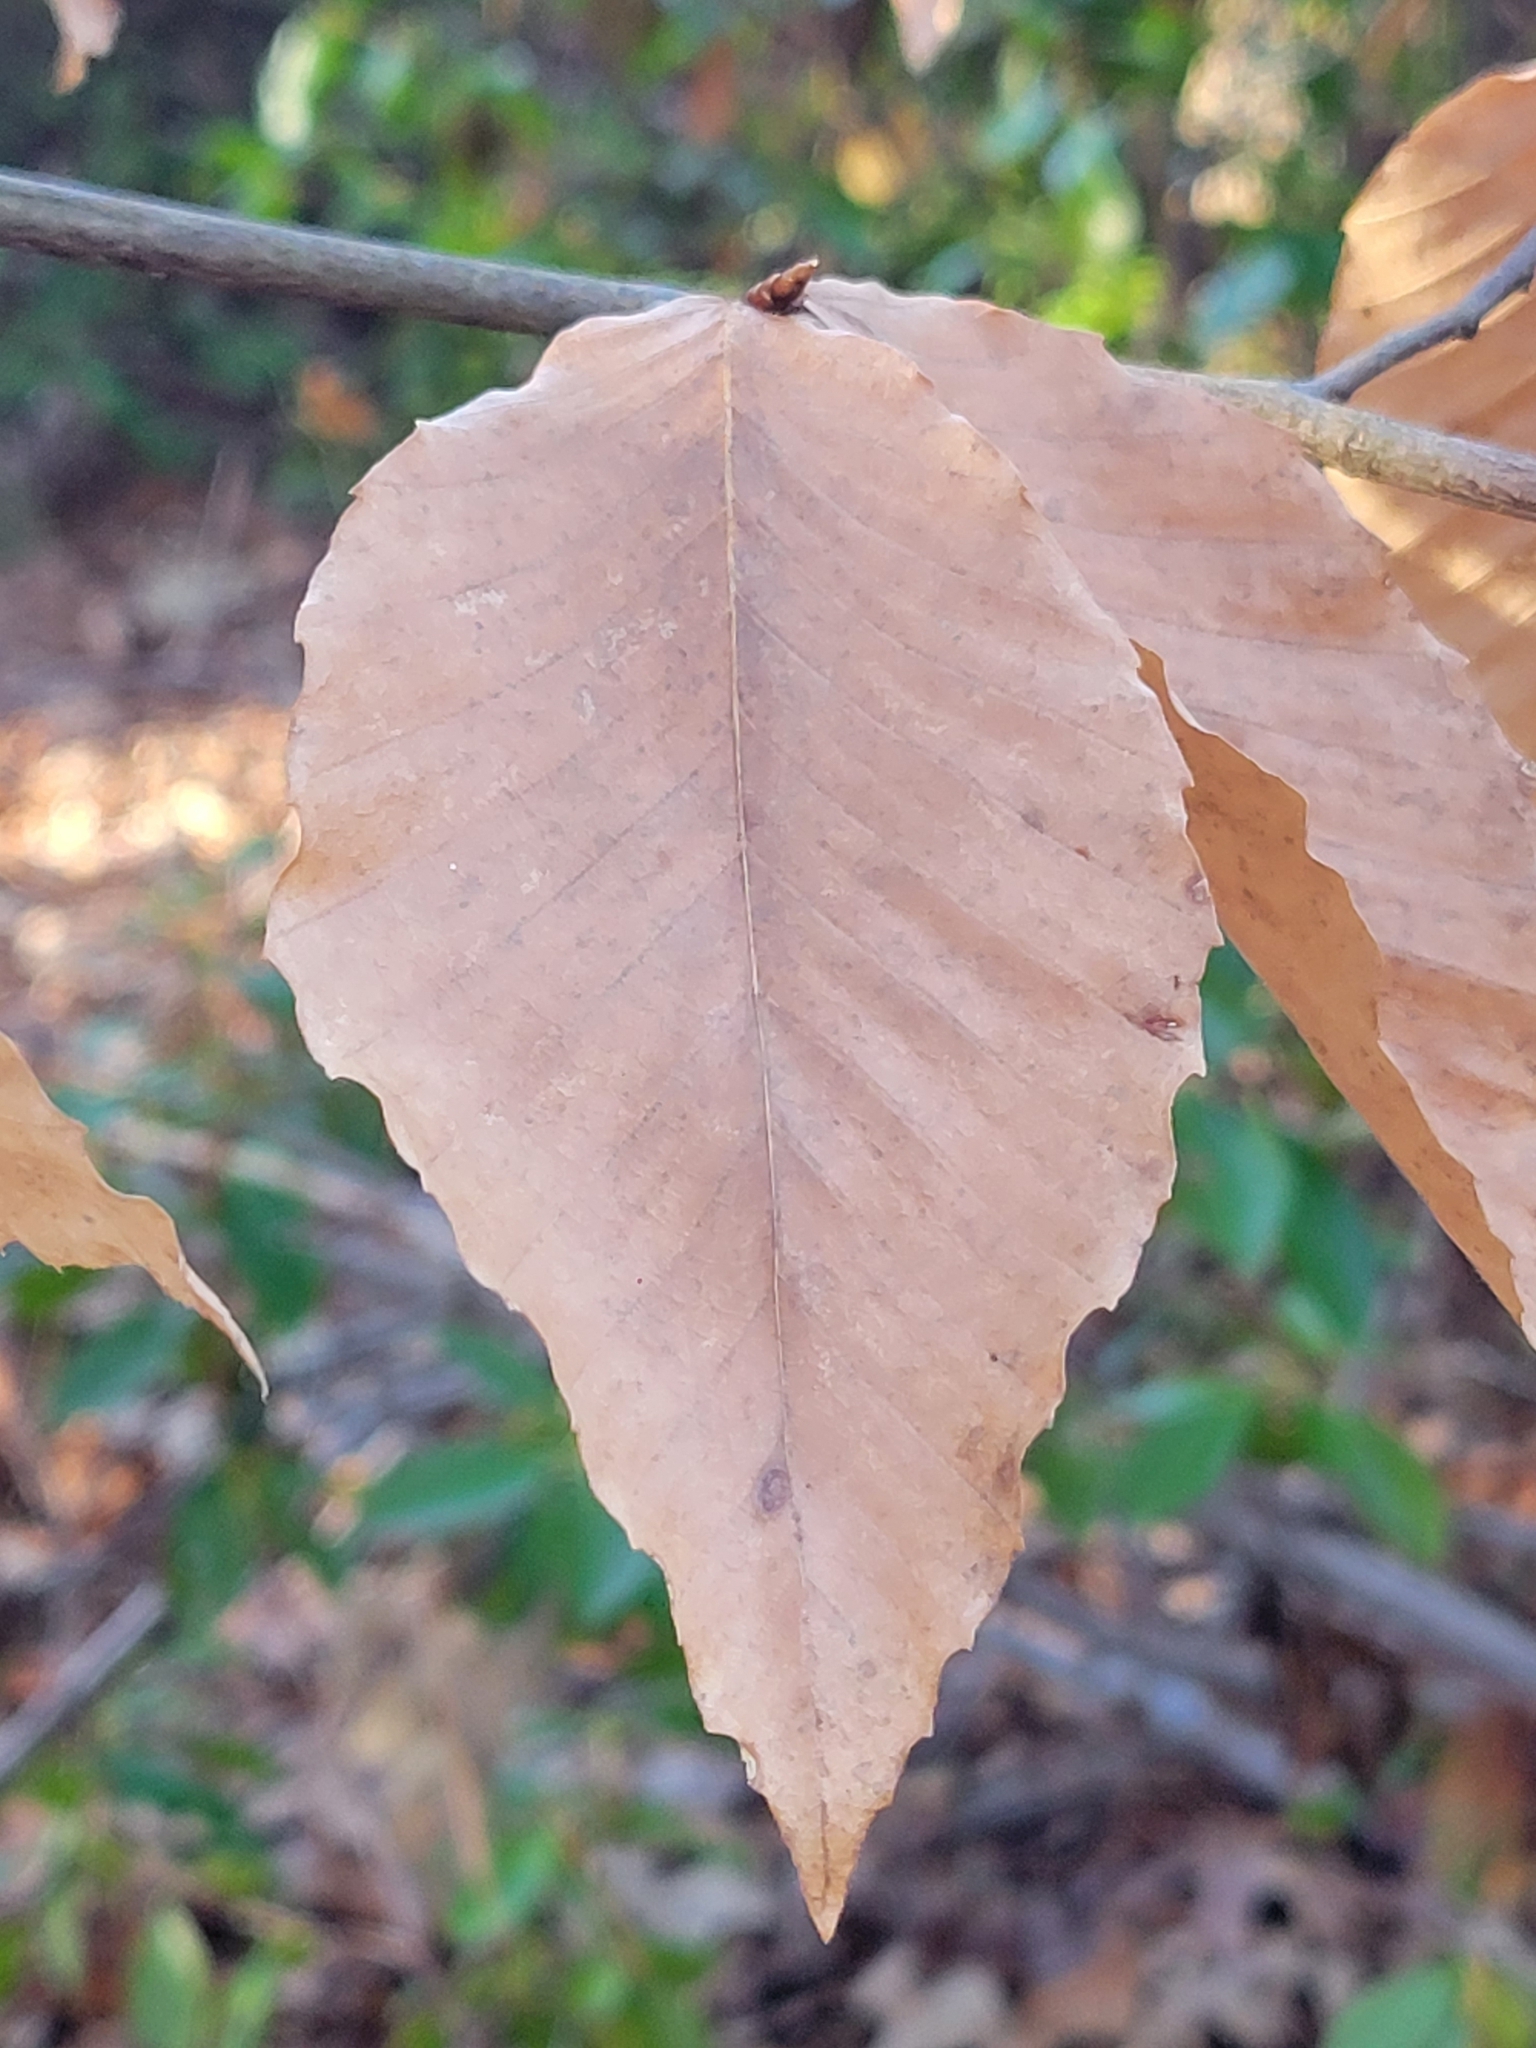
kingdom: Plantae
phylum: Tracheophyta
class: Magnoliopsida
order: Fagales
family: Fagaceae
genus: Fagus
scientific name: Fagus grandifolia
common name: American beech
